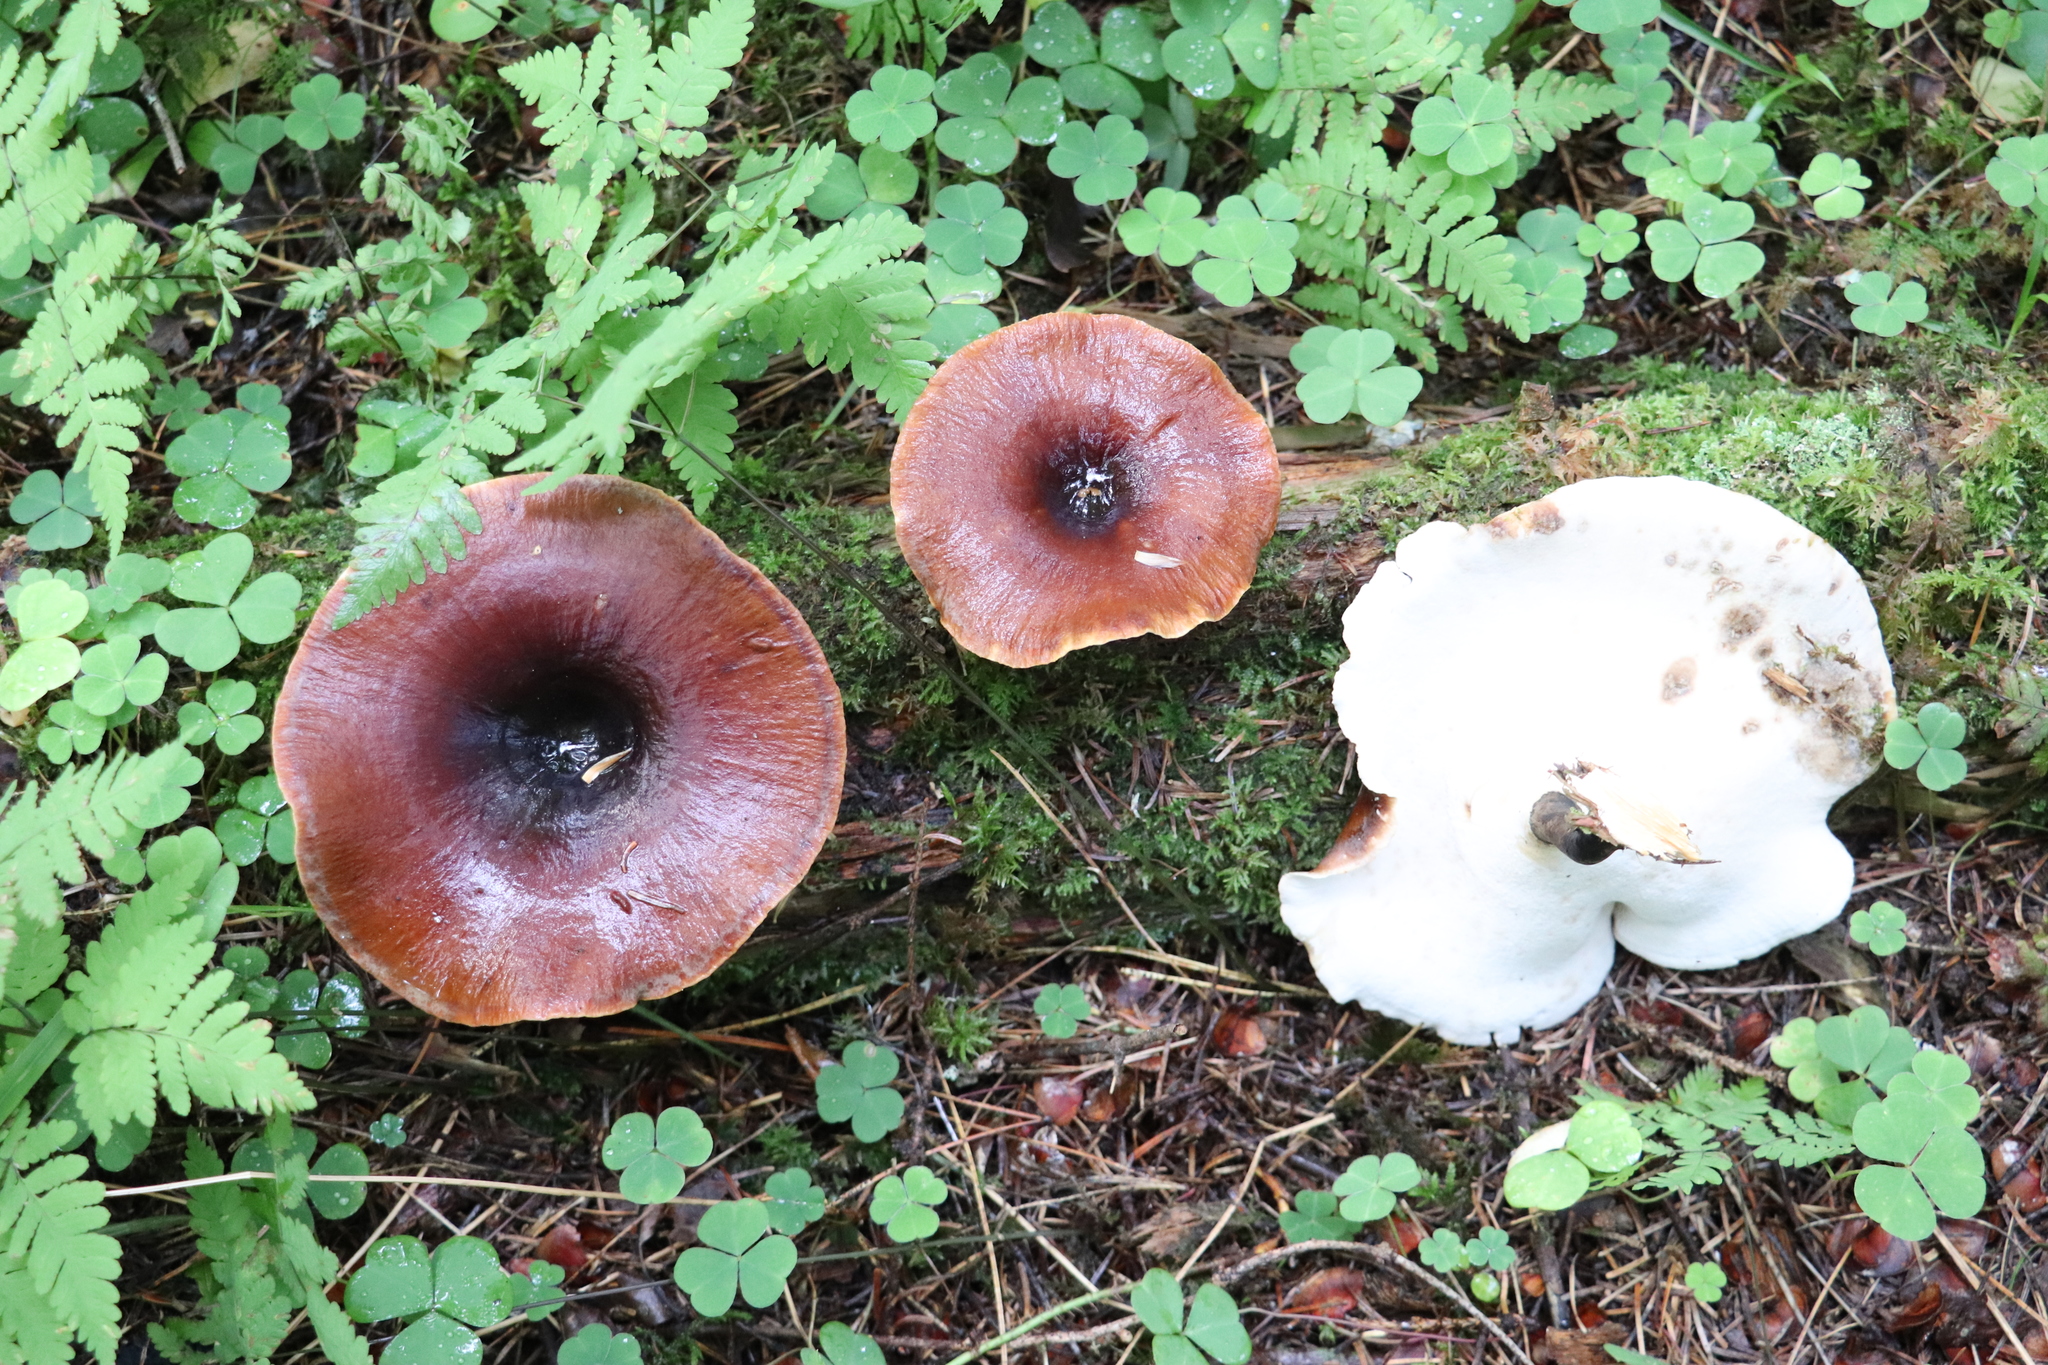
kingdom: Fungi
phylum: Basidiomycota
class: Agaricomycetes
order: Polyporales
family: Polyporaceae
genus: Picipes
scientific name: Picipes badius
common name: Bay polypore
